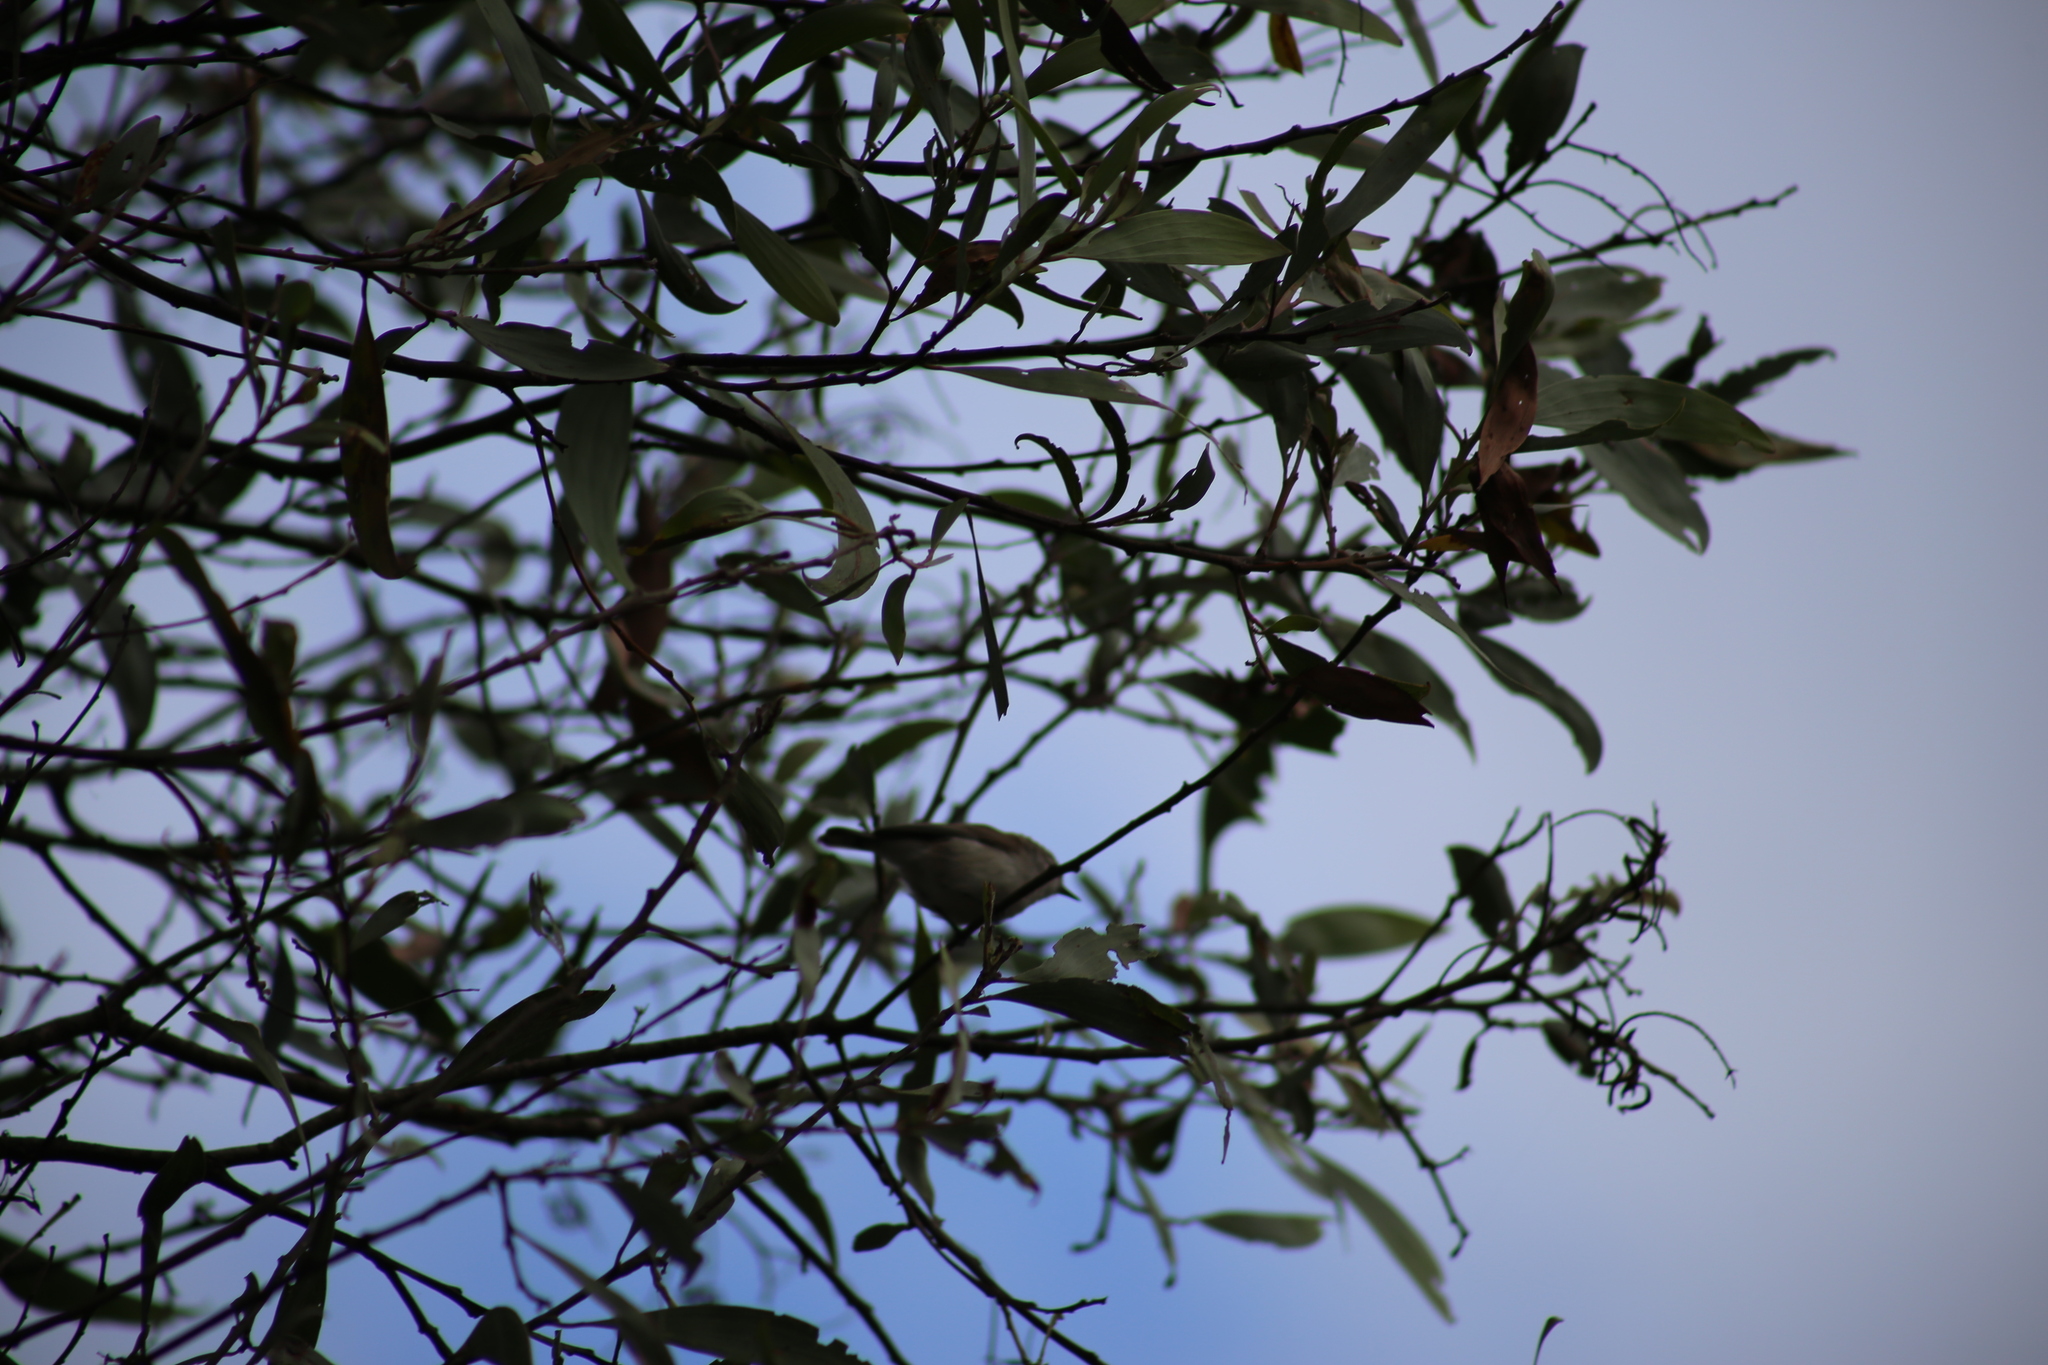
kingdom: Animalia
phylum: Chordata
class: Aves
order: Passeriformes
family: Acanthizidae
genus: Gerygone
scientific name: Gerygone levigaster
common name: Mangrove gerygone
